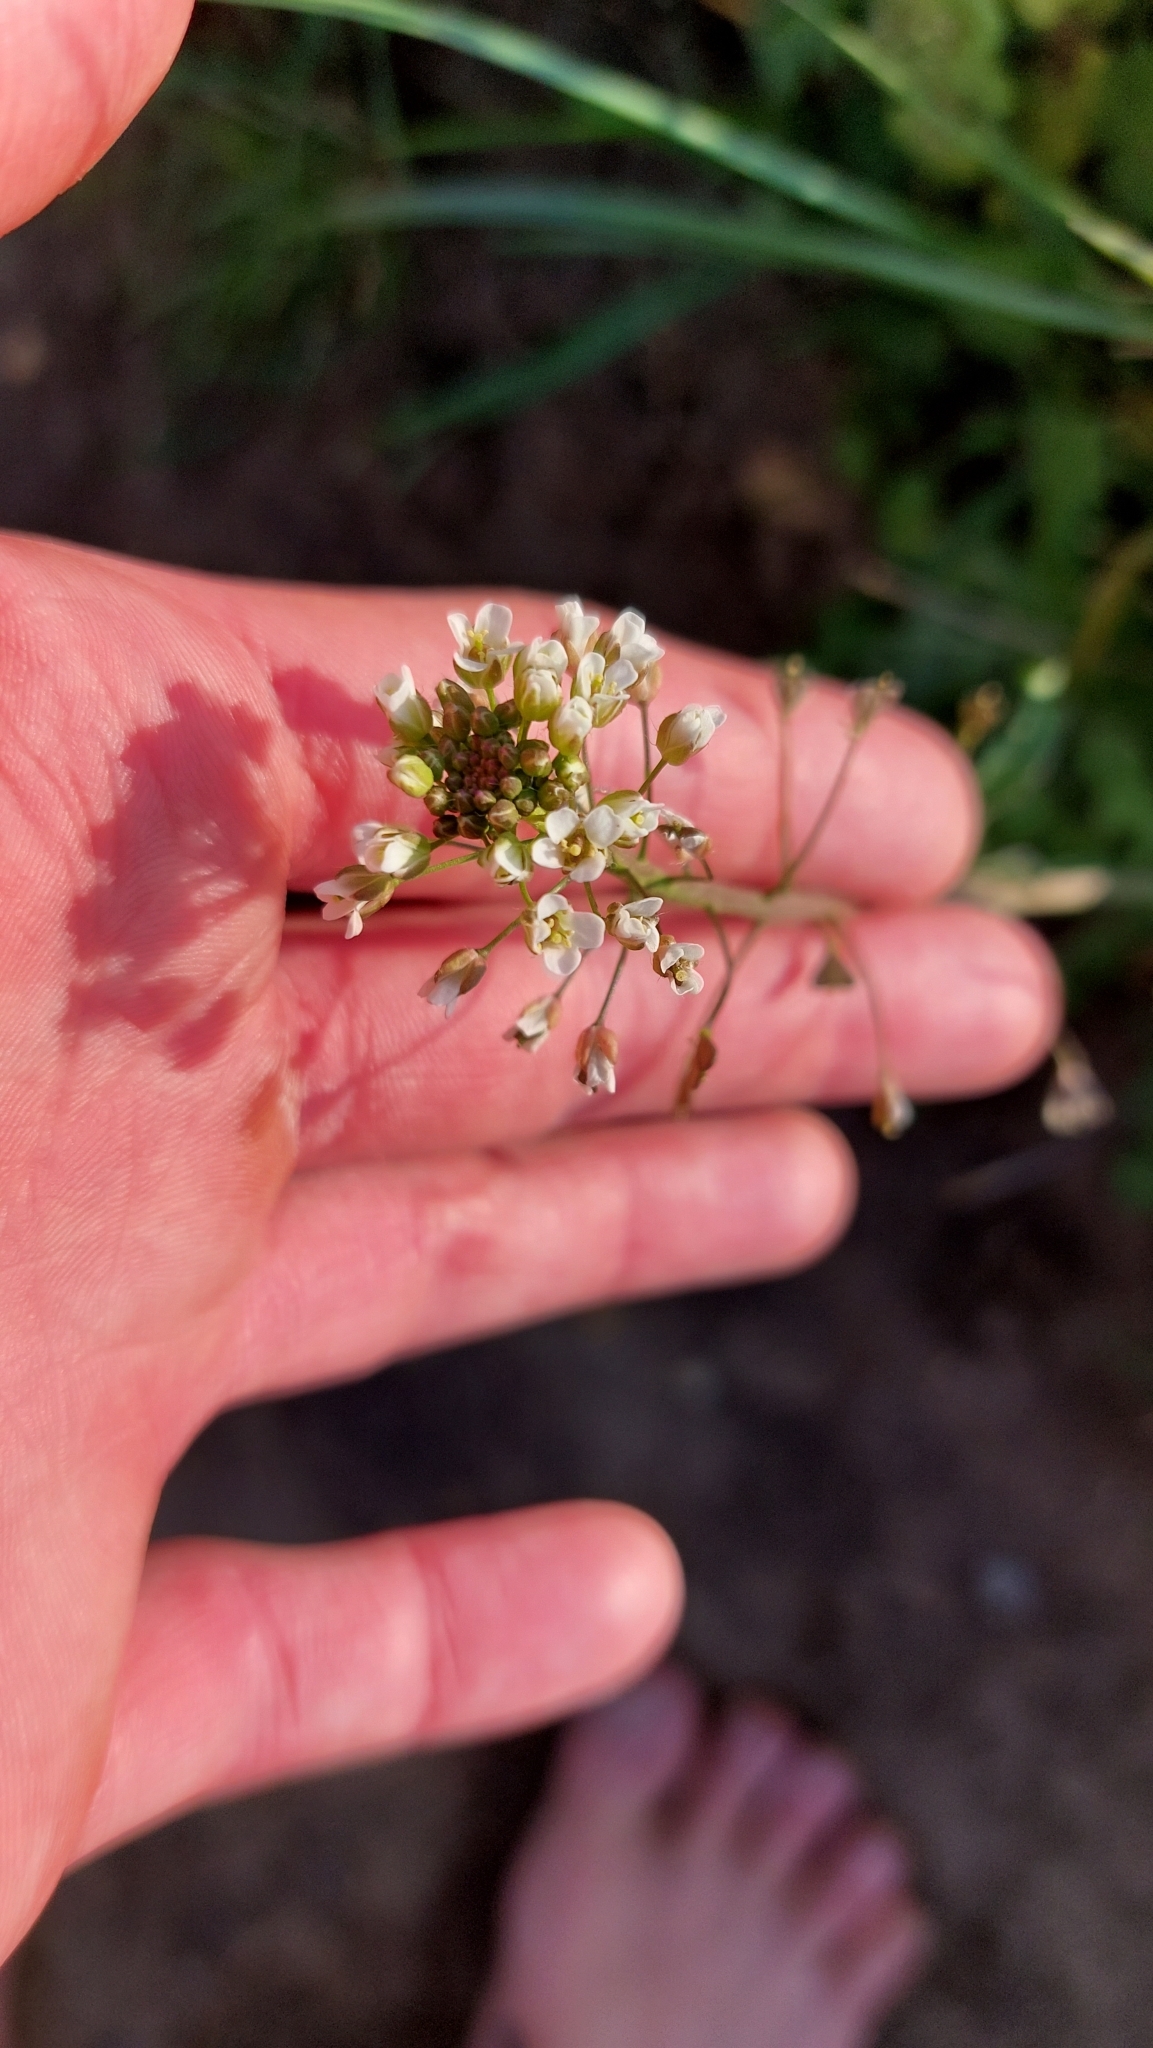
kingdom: Plantae
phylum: Tracheophyta
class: Magnoliopsida
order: Brassicales
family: Brassicaceae
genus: Capsella
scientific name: Capsella bursa-pastoris
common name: Shepherd's purse
